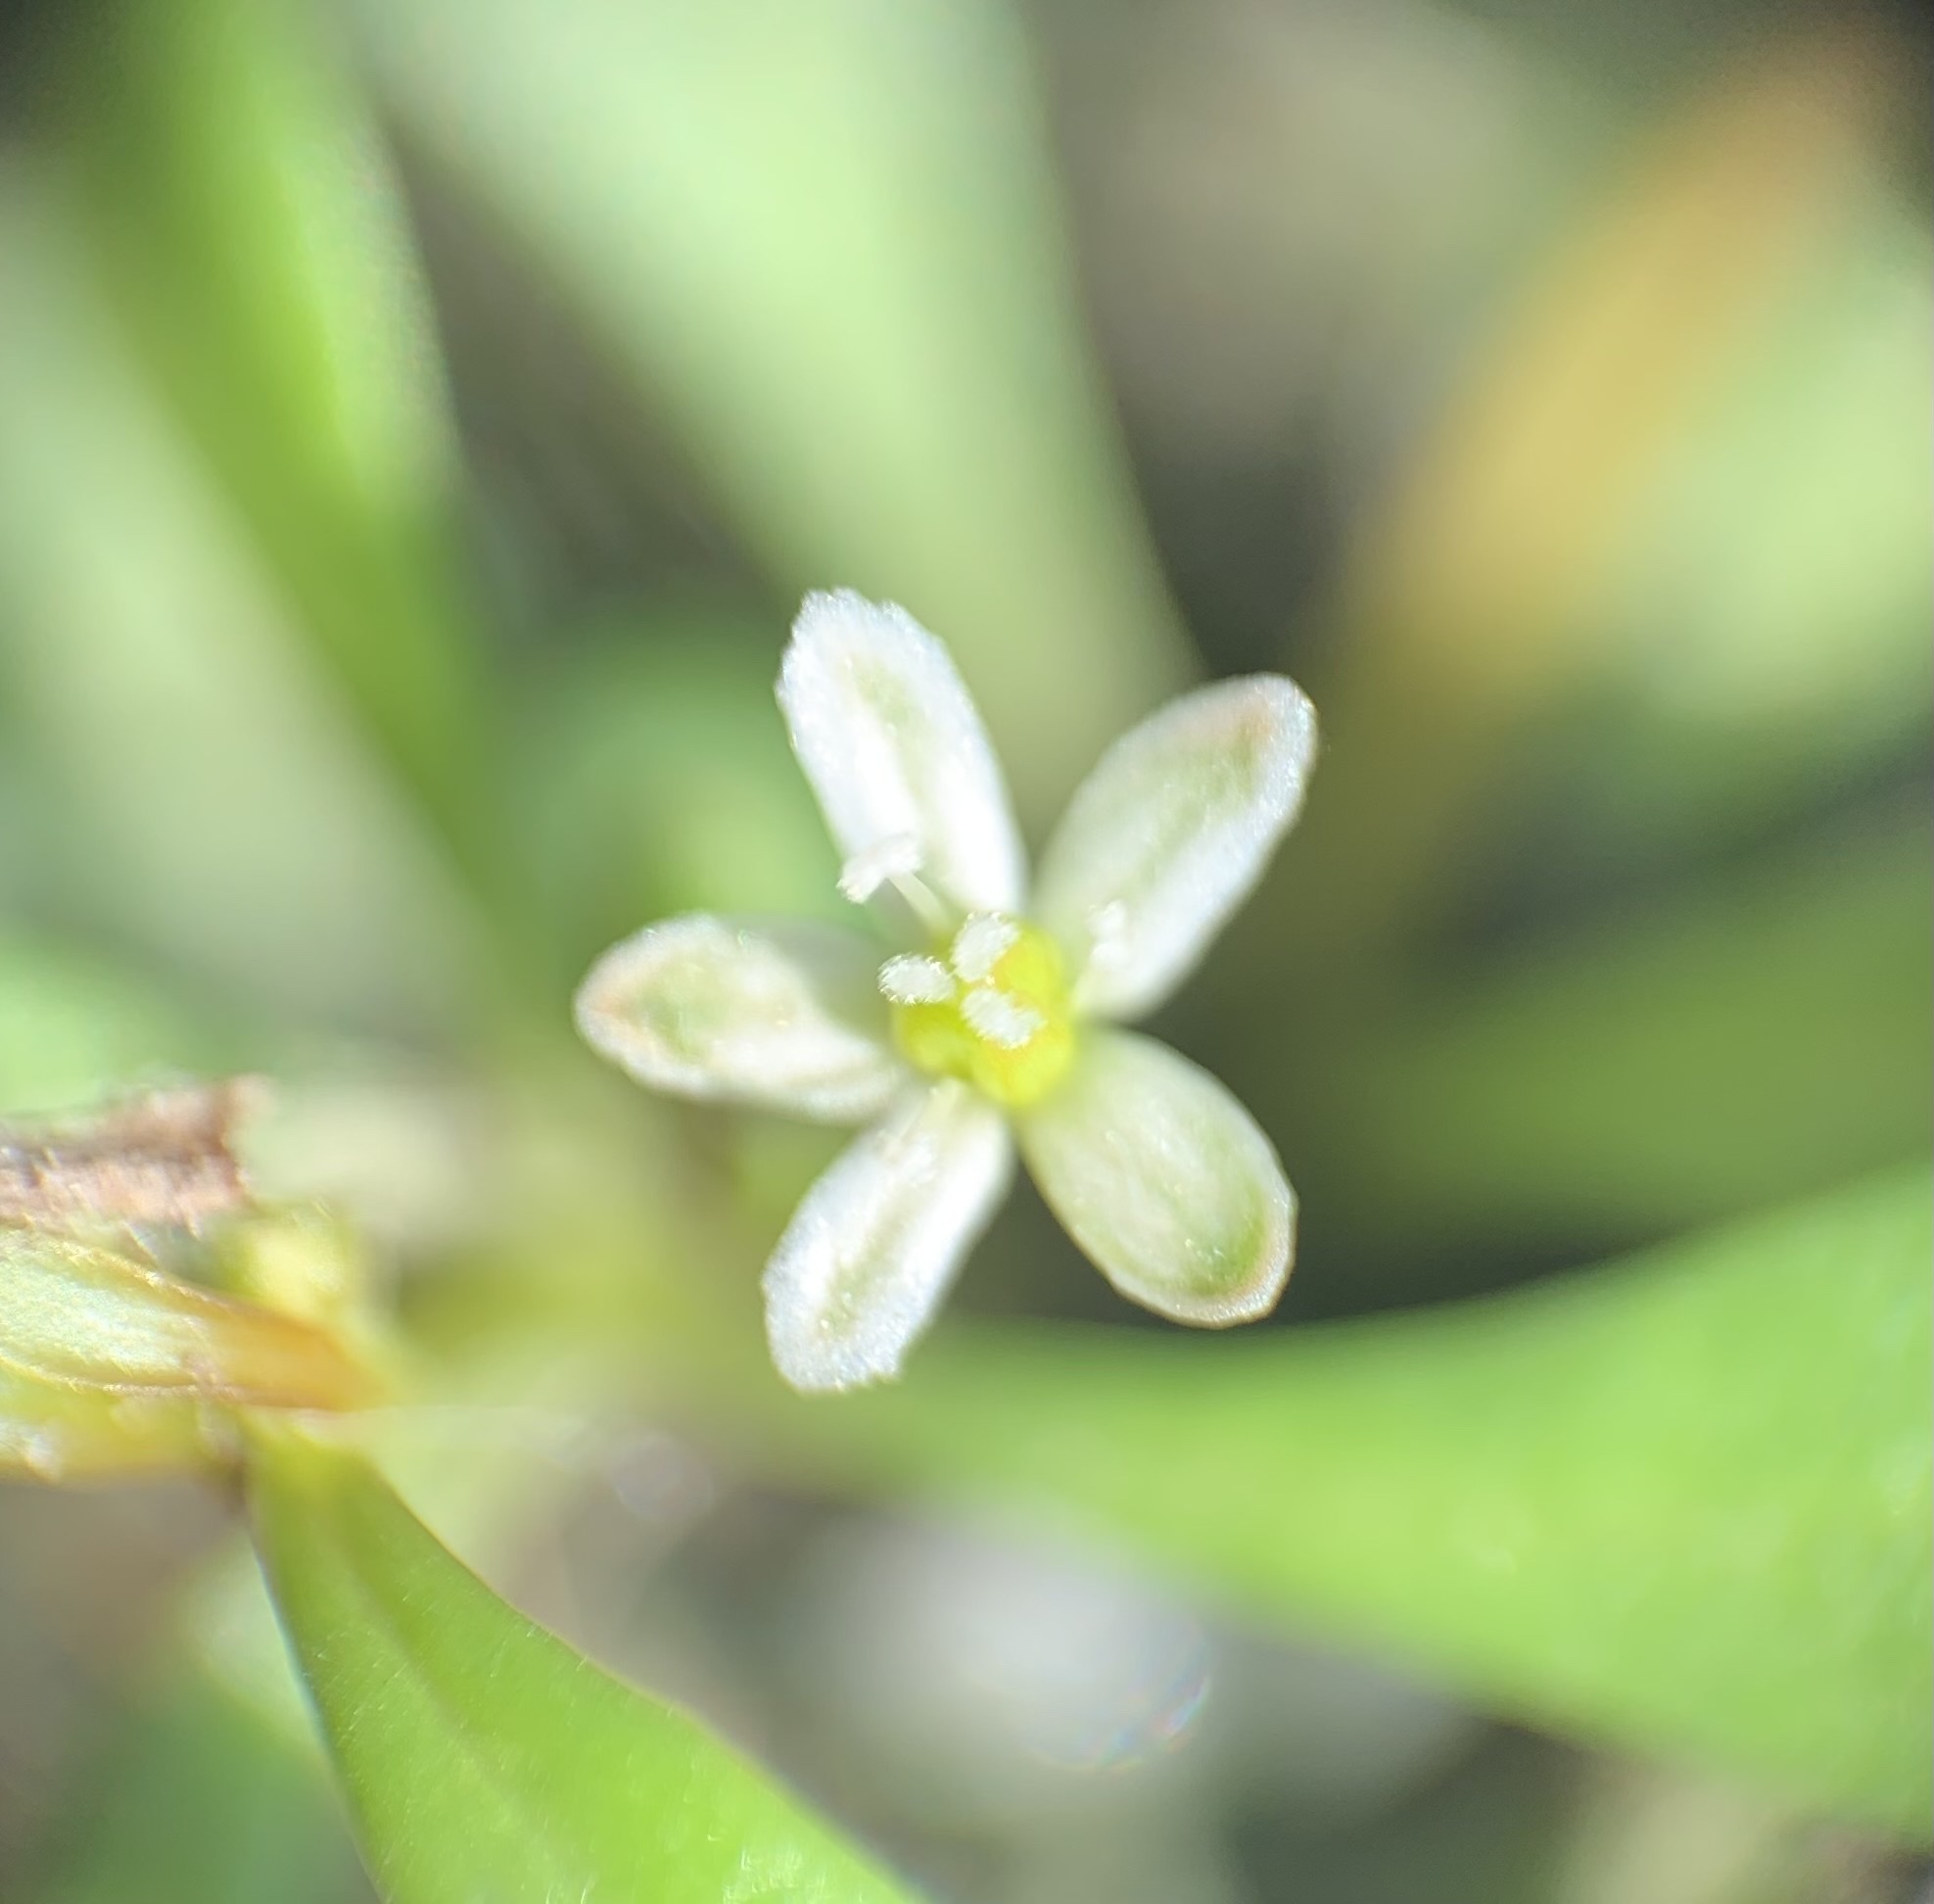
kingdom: Plantae
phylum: Tracheophyta
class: Magnoliopsida
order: Caryophyllales
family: Molluginaceae
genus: Mollugo
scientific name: Mollugo verticillata
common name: Green carpetweed
